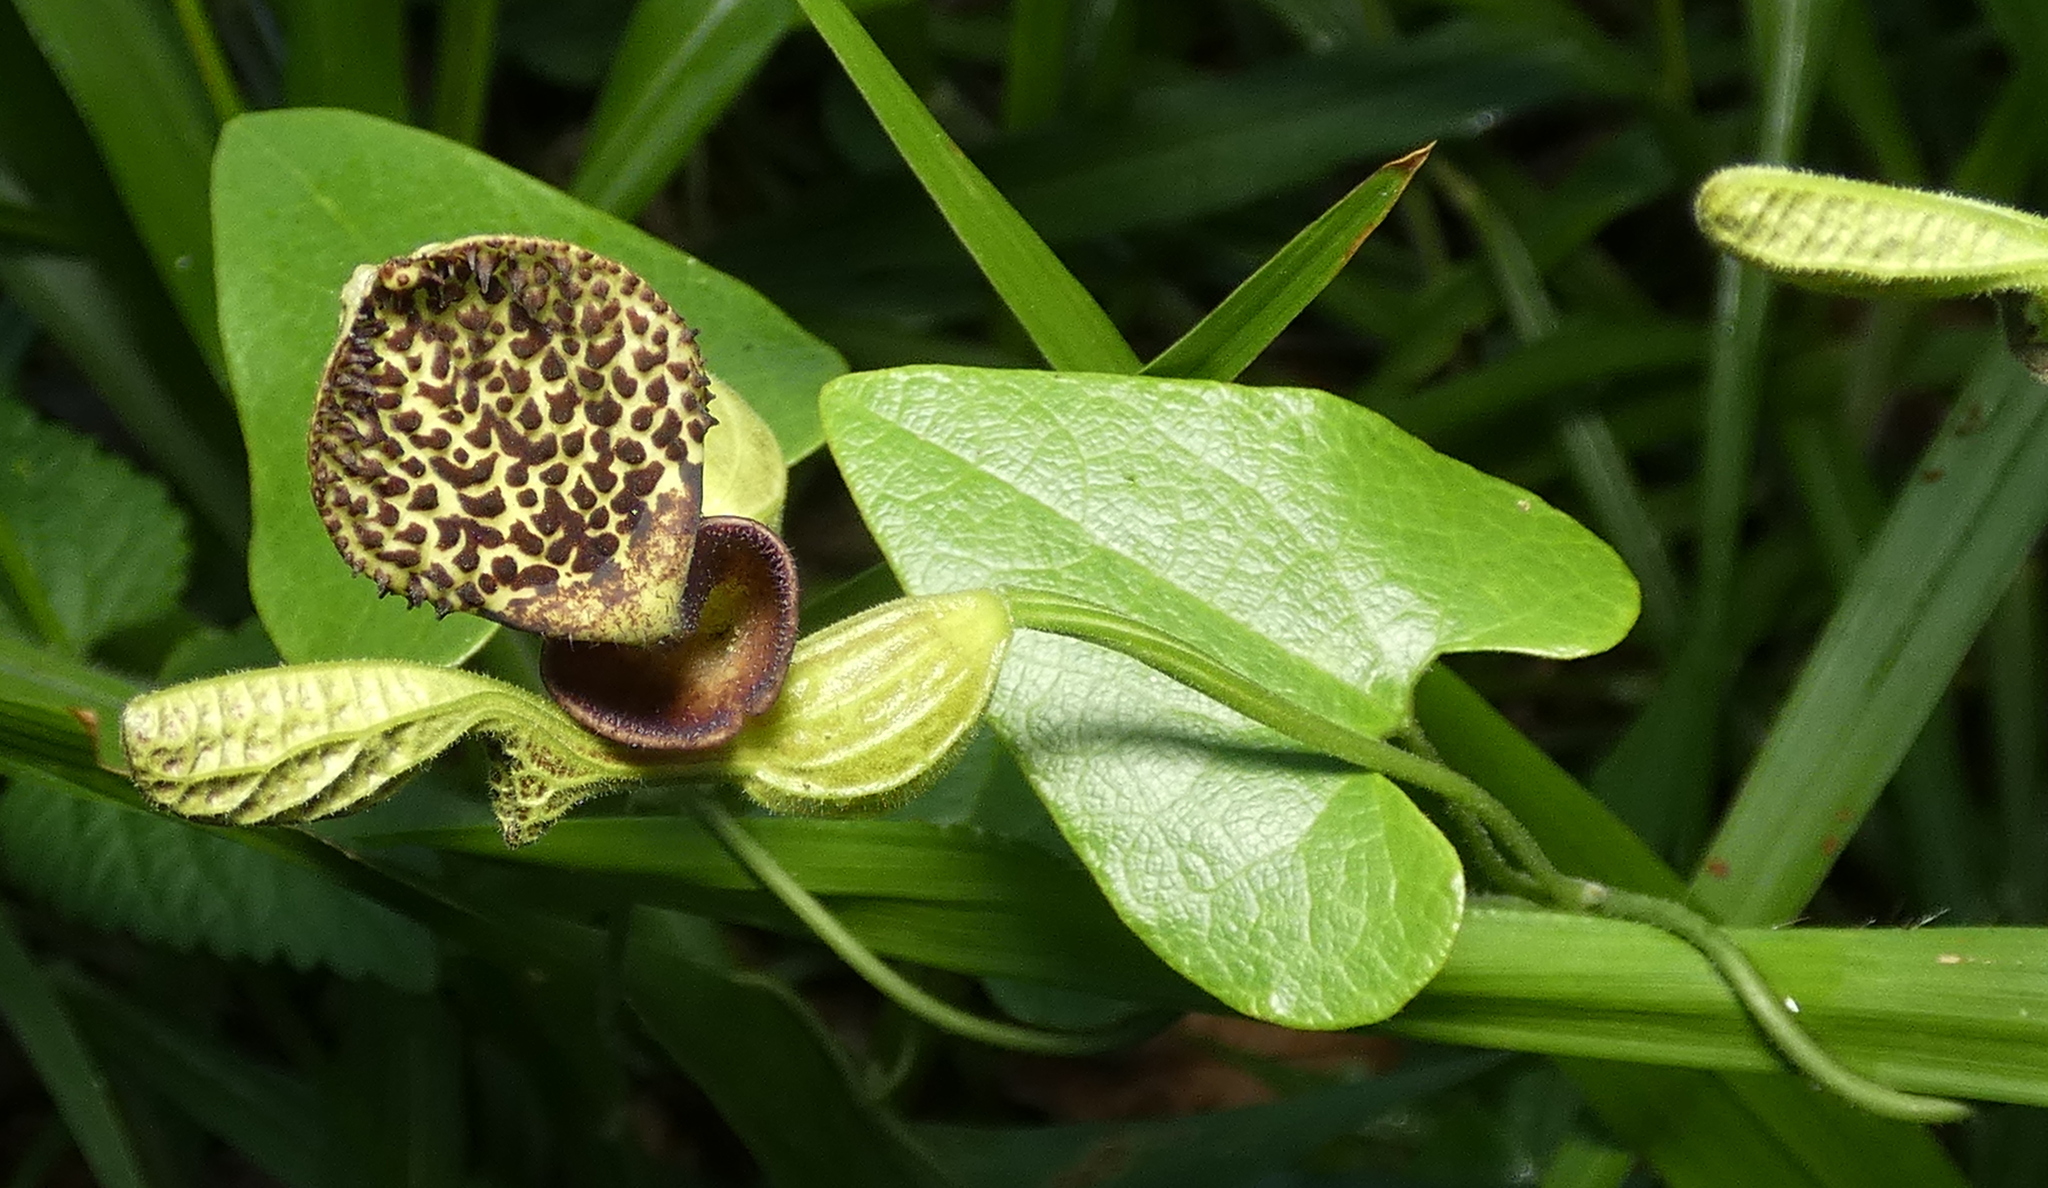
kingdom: Plantae
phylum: Tracheophyta
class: Magnoliopsida
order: Piperales
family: Aristolochiaceae
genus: Aristolochia
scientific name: Aristolochia papillaris
